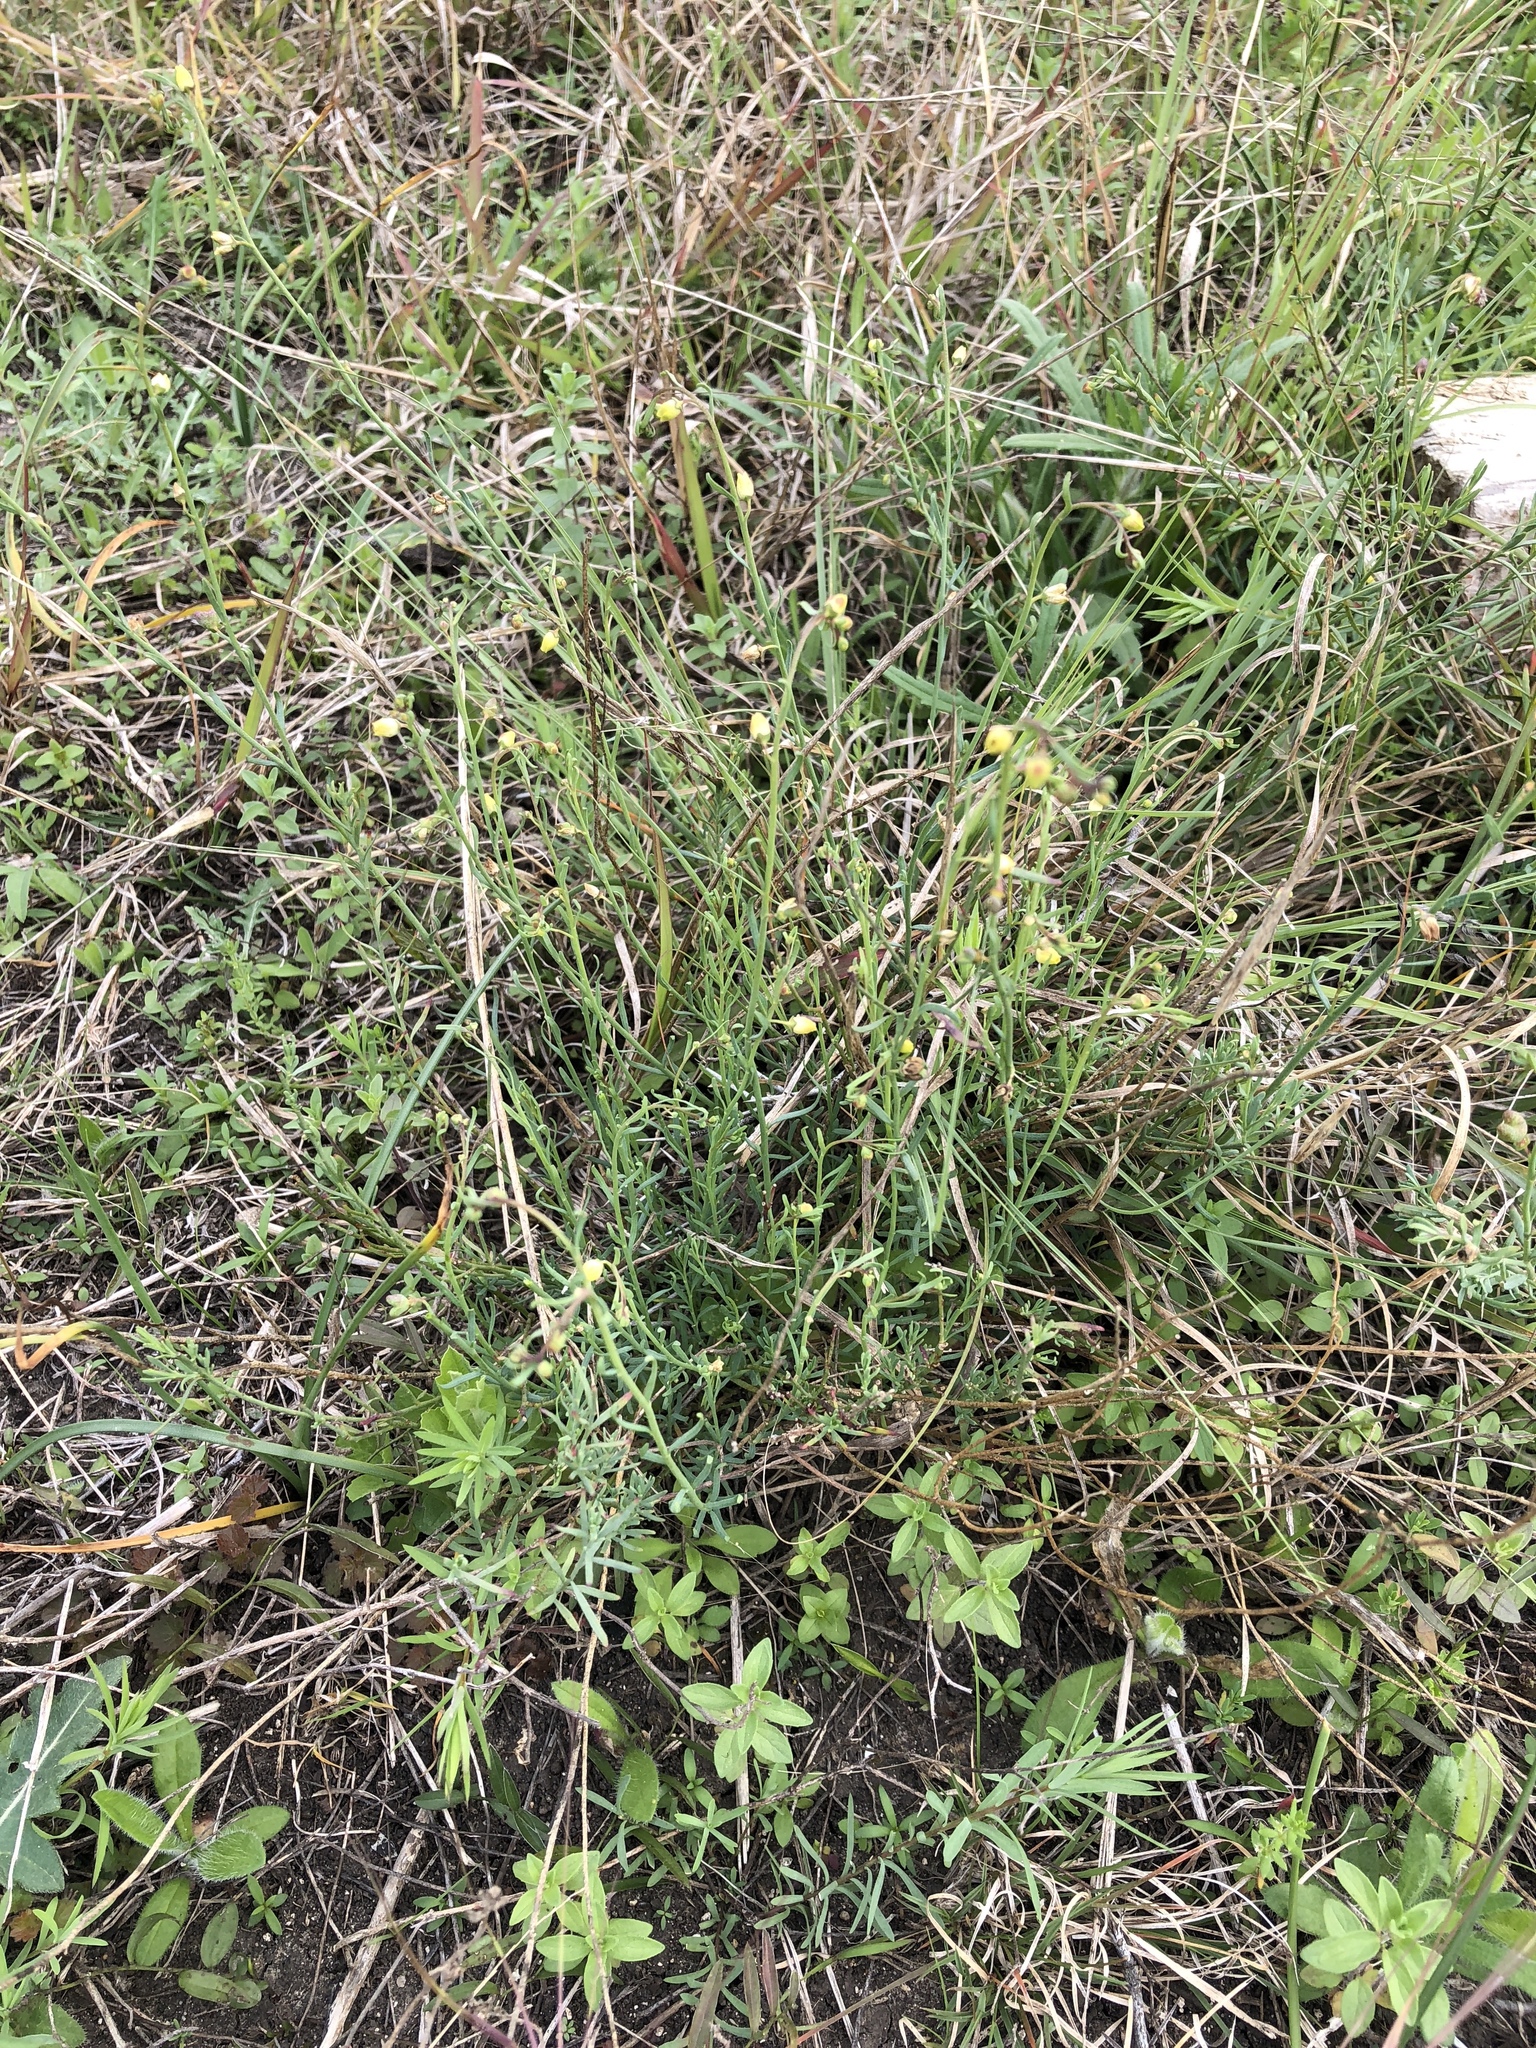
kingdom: Plantae
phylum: Tracheophyta
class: Magnoliopsida
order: Sapindales
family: Rutaceae
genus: Thamnosma
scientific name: Thamnosma texana
